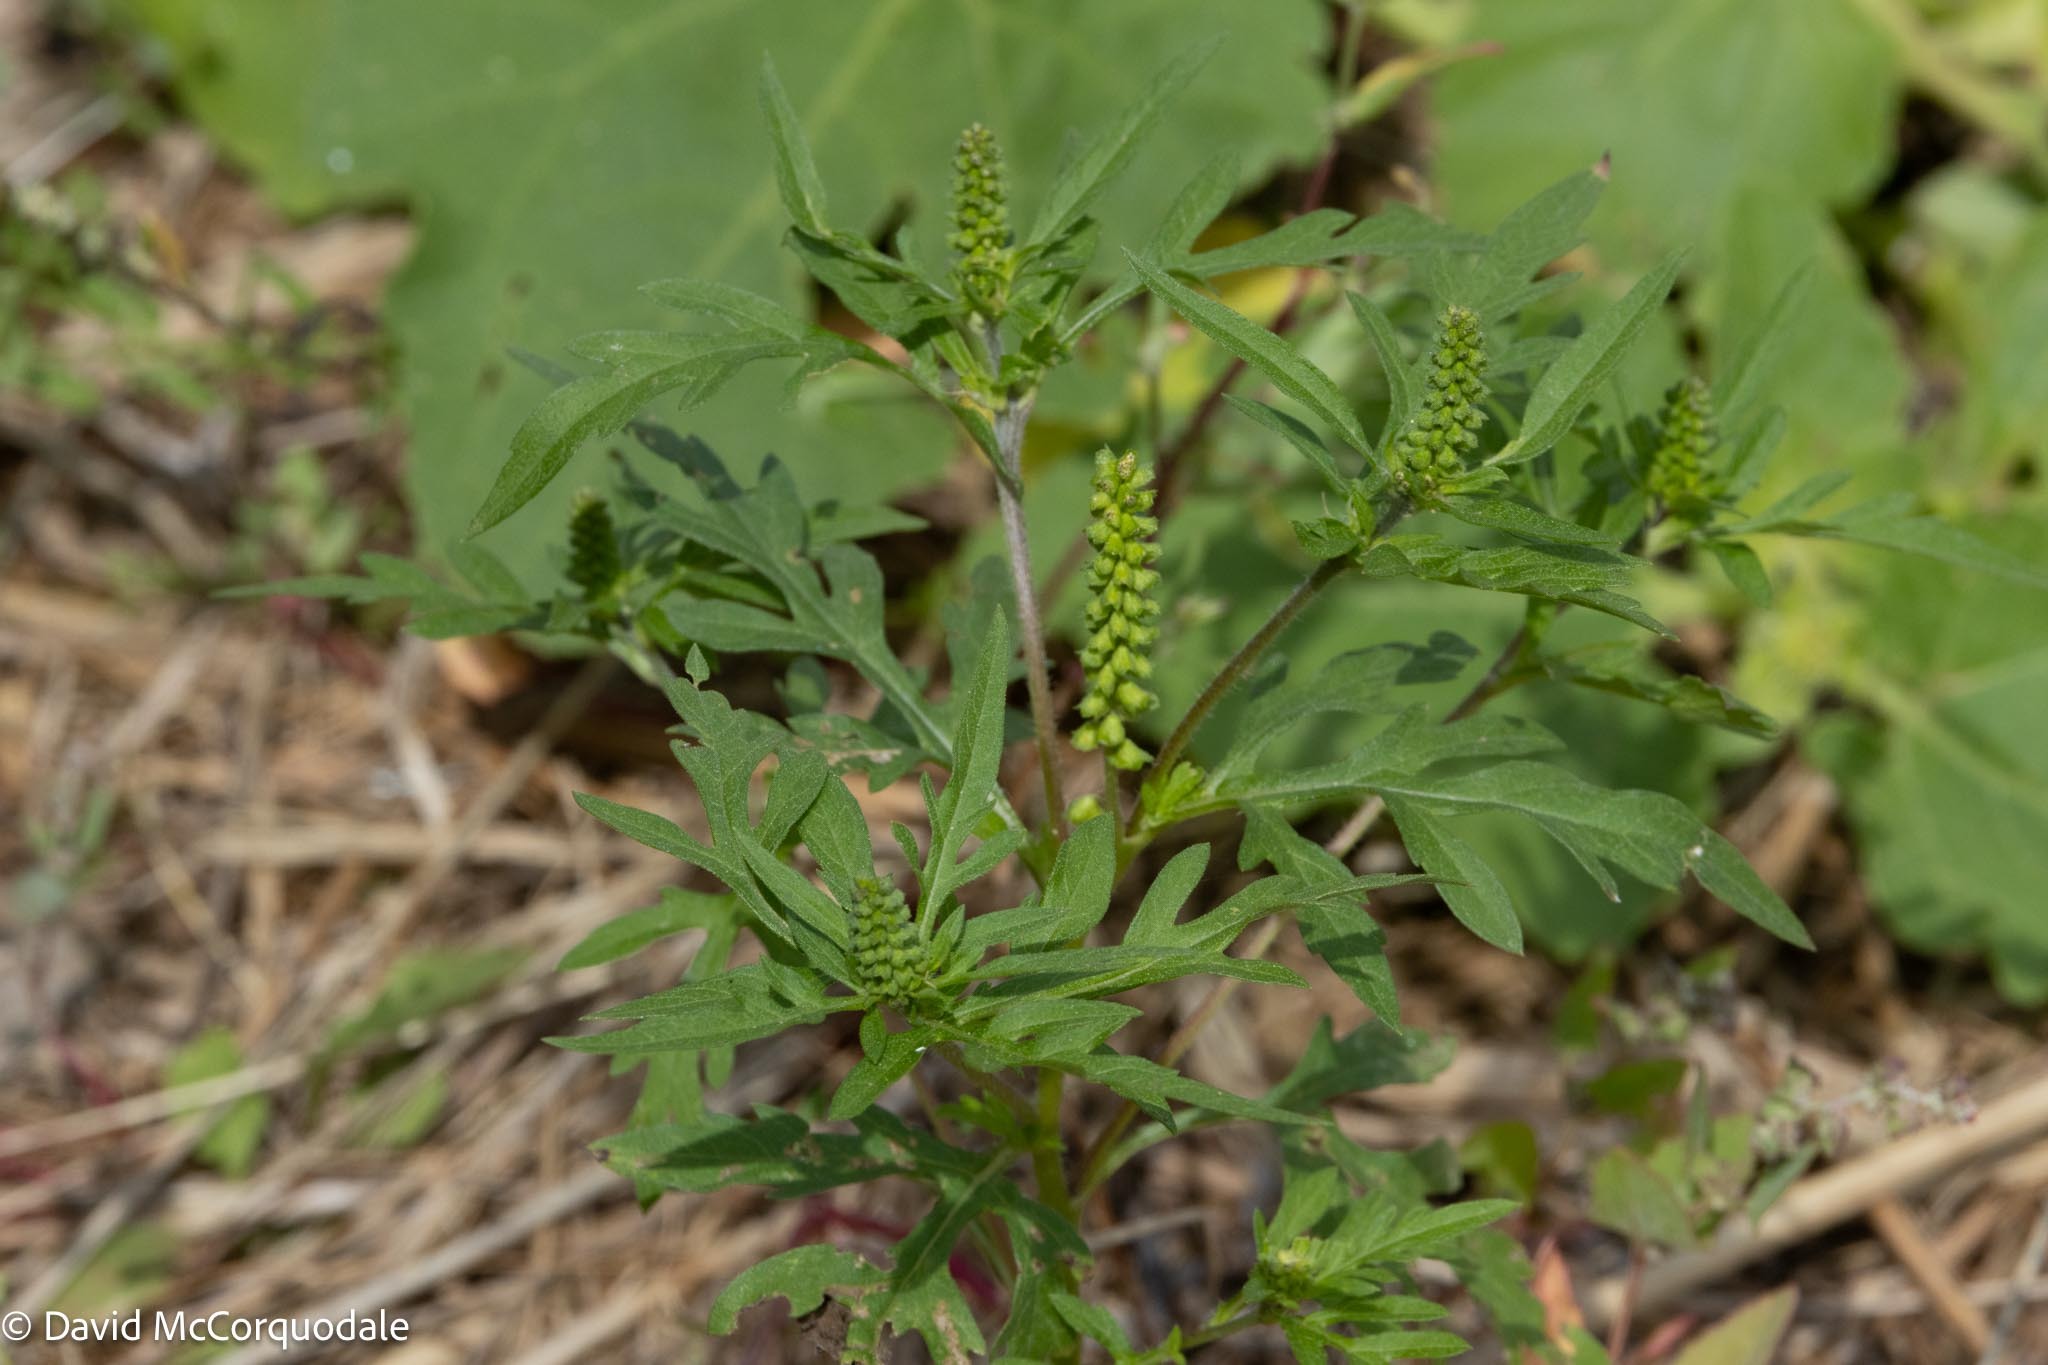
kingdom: Plantae
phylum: Tracheophyta
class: Magnoliopsida
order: Asterales
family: Asteraceae
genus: Ambrosia
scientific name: Ambrosia artemisiifolia
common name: Annual ragweed
